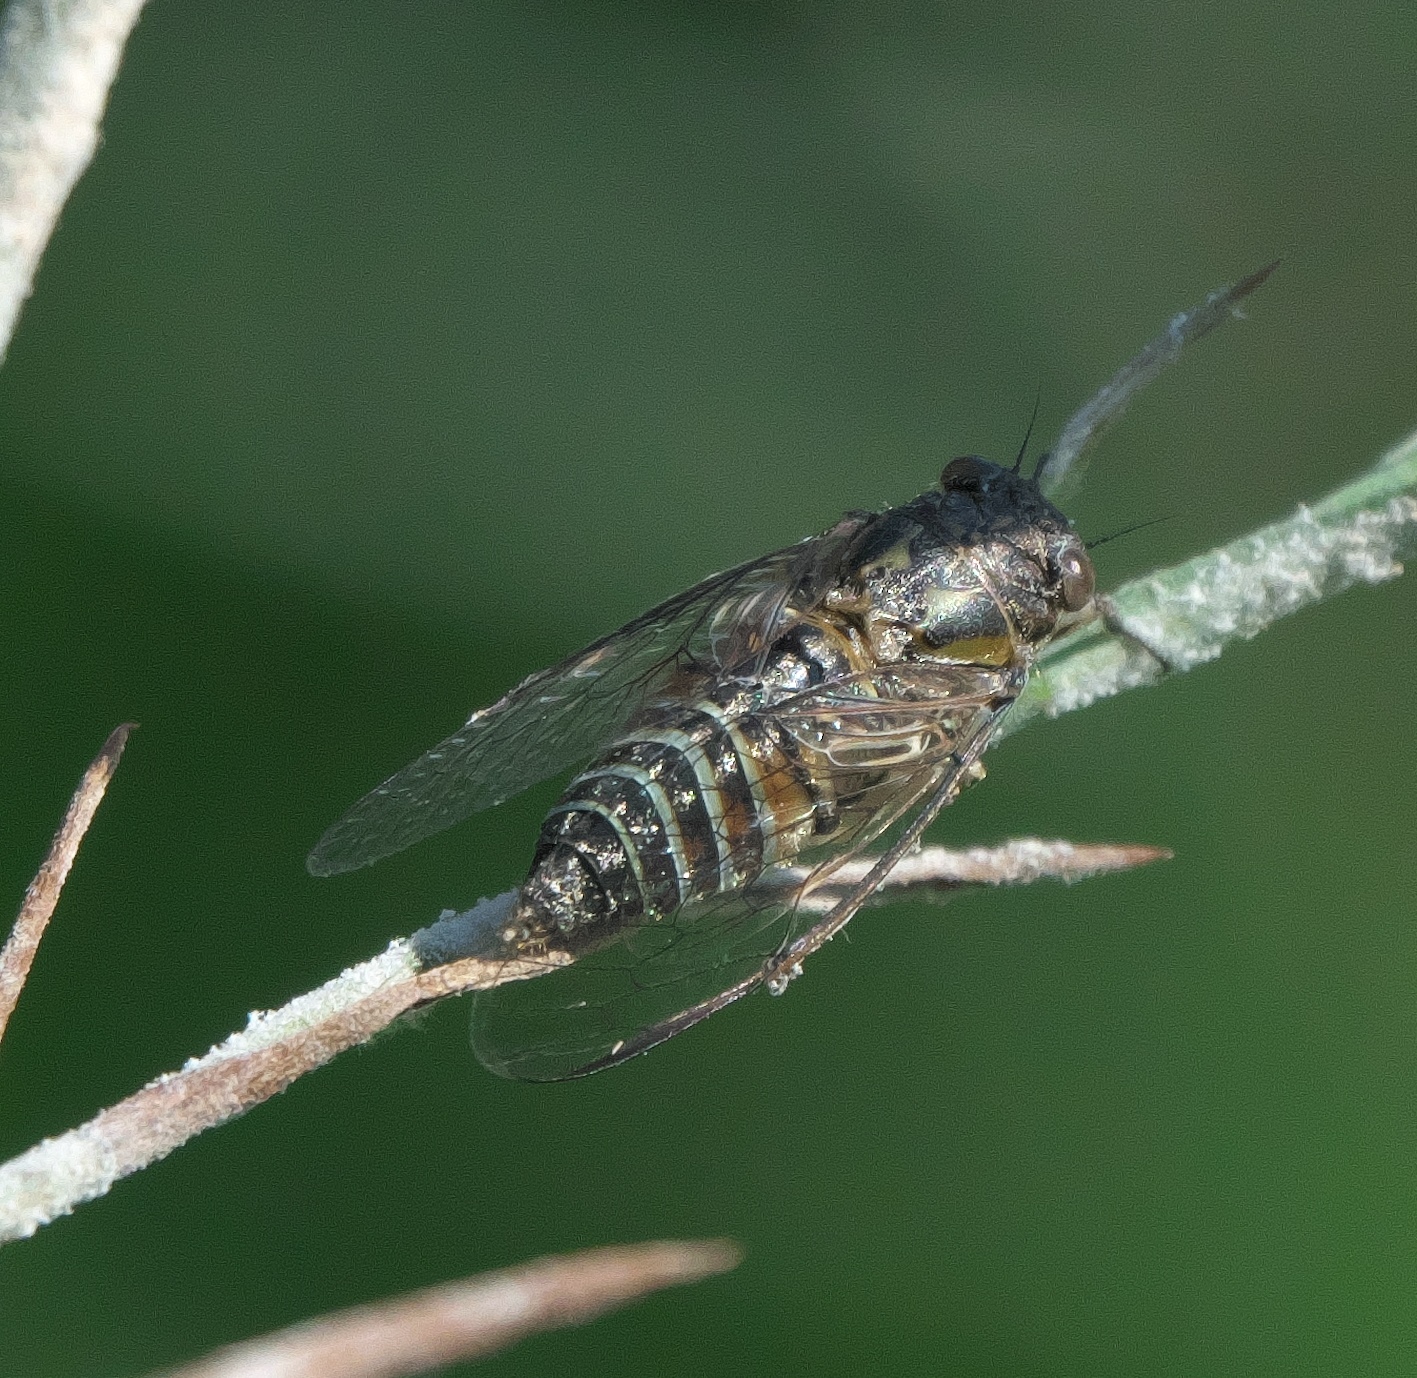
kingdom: Animalia
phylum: Arthropoda
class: Insecta
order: Hemiptera
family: Cicadidae
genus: Physeema
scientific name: Physeema quadricincta
